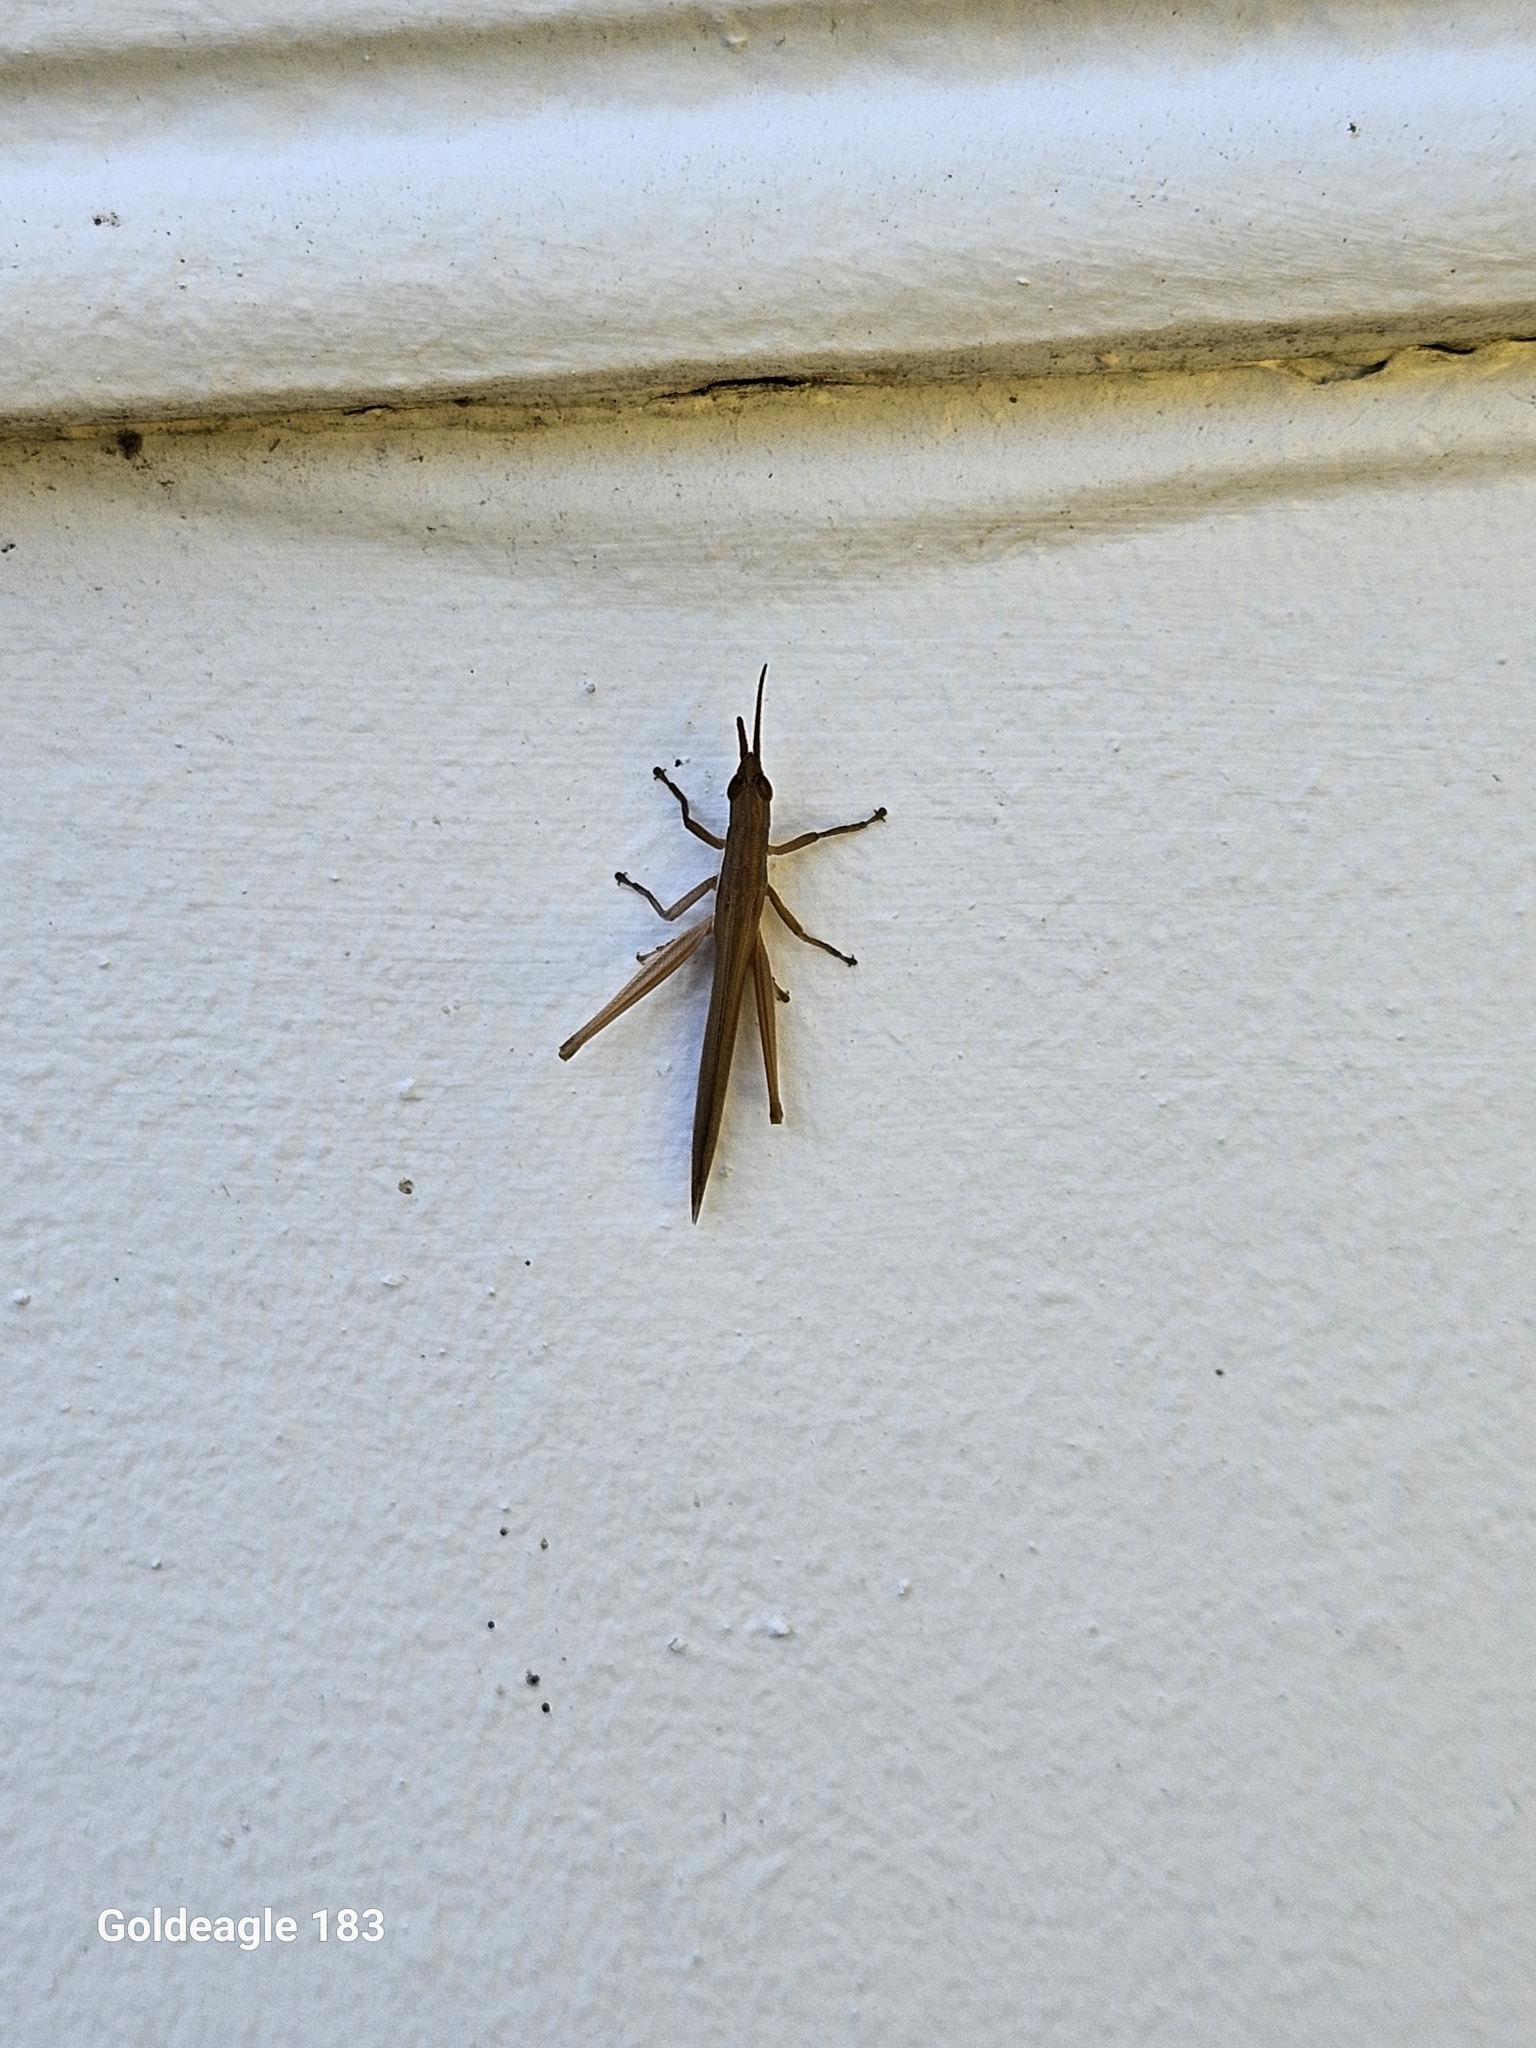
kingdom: Animalia
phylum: Arthropoda
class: Insecta
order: Orthoptera
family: Acrididae
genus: Leptysma
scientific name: Leptysma marginicollis
